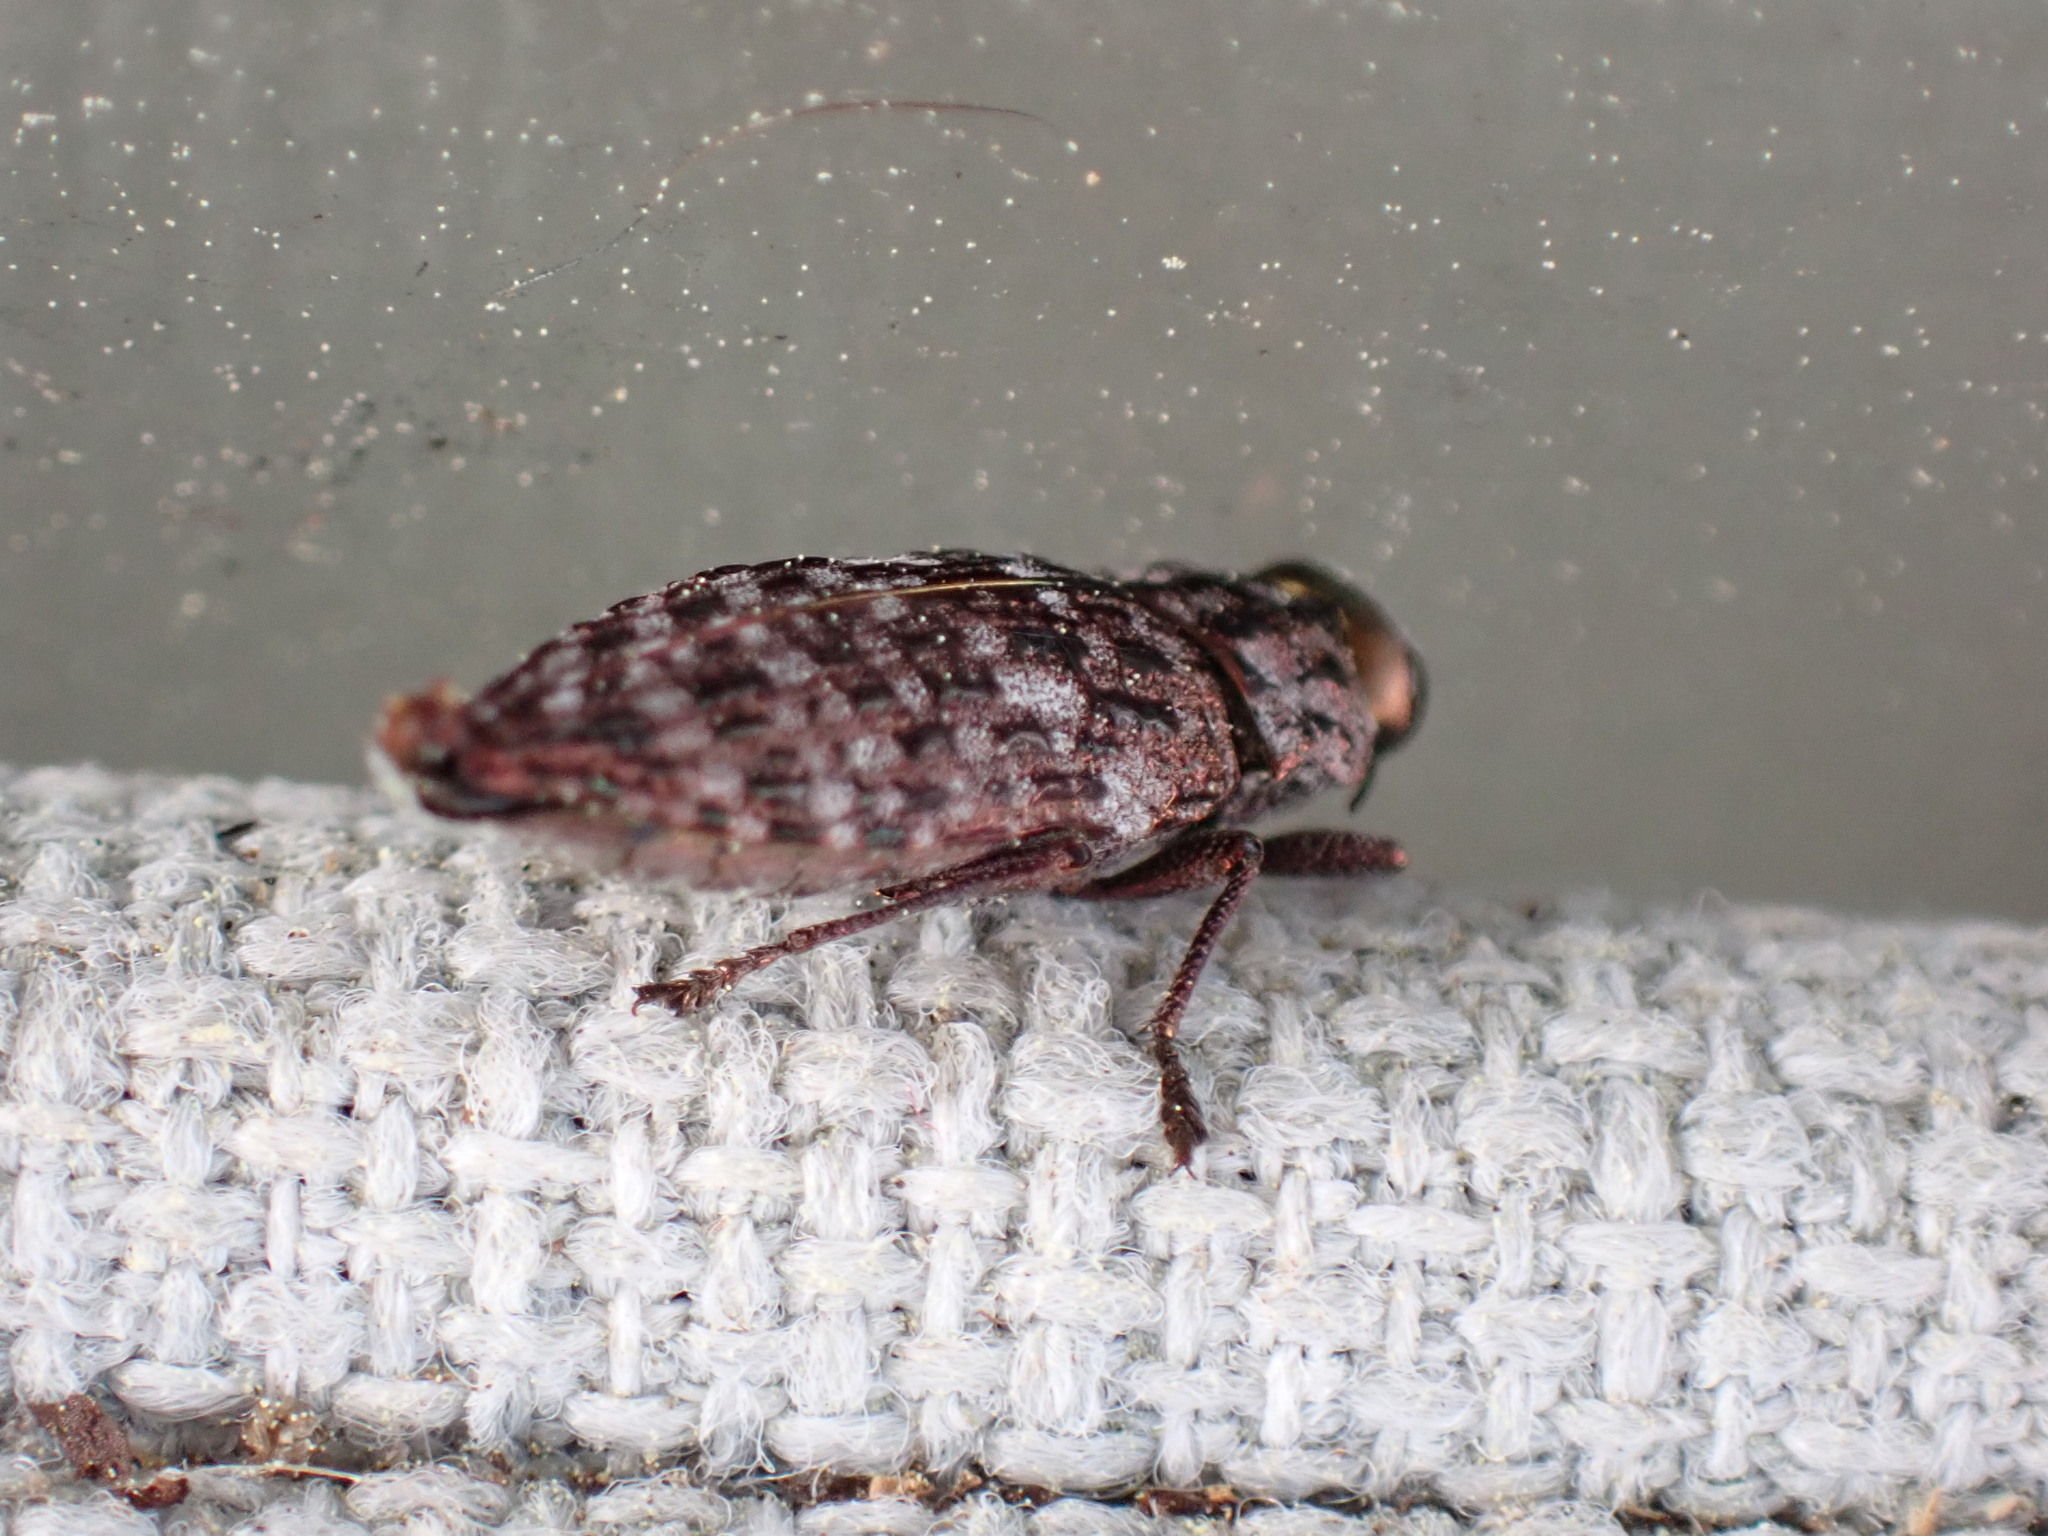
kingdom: Animalia
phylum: Arthropoda
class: Insecta
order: Coleoptera
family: Buprestidae
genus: Dicerca
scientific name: Dicerca tenebrosa
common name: Dark jewel beetle
